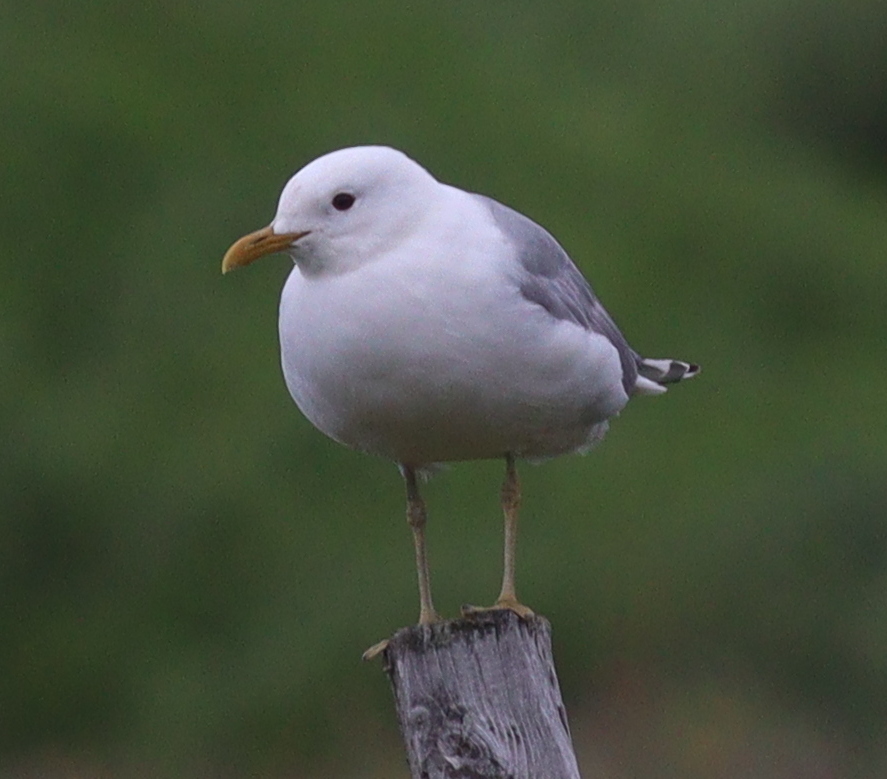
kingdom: Animalia
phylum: Chordata
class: Aves
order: Charadriiformes
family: Laridae
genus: Larus
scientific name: Larus canus
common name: Mew gull
